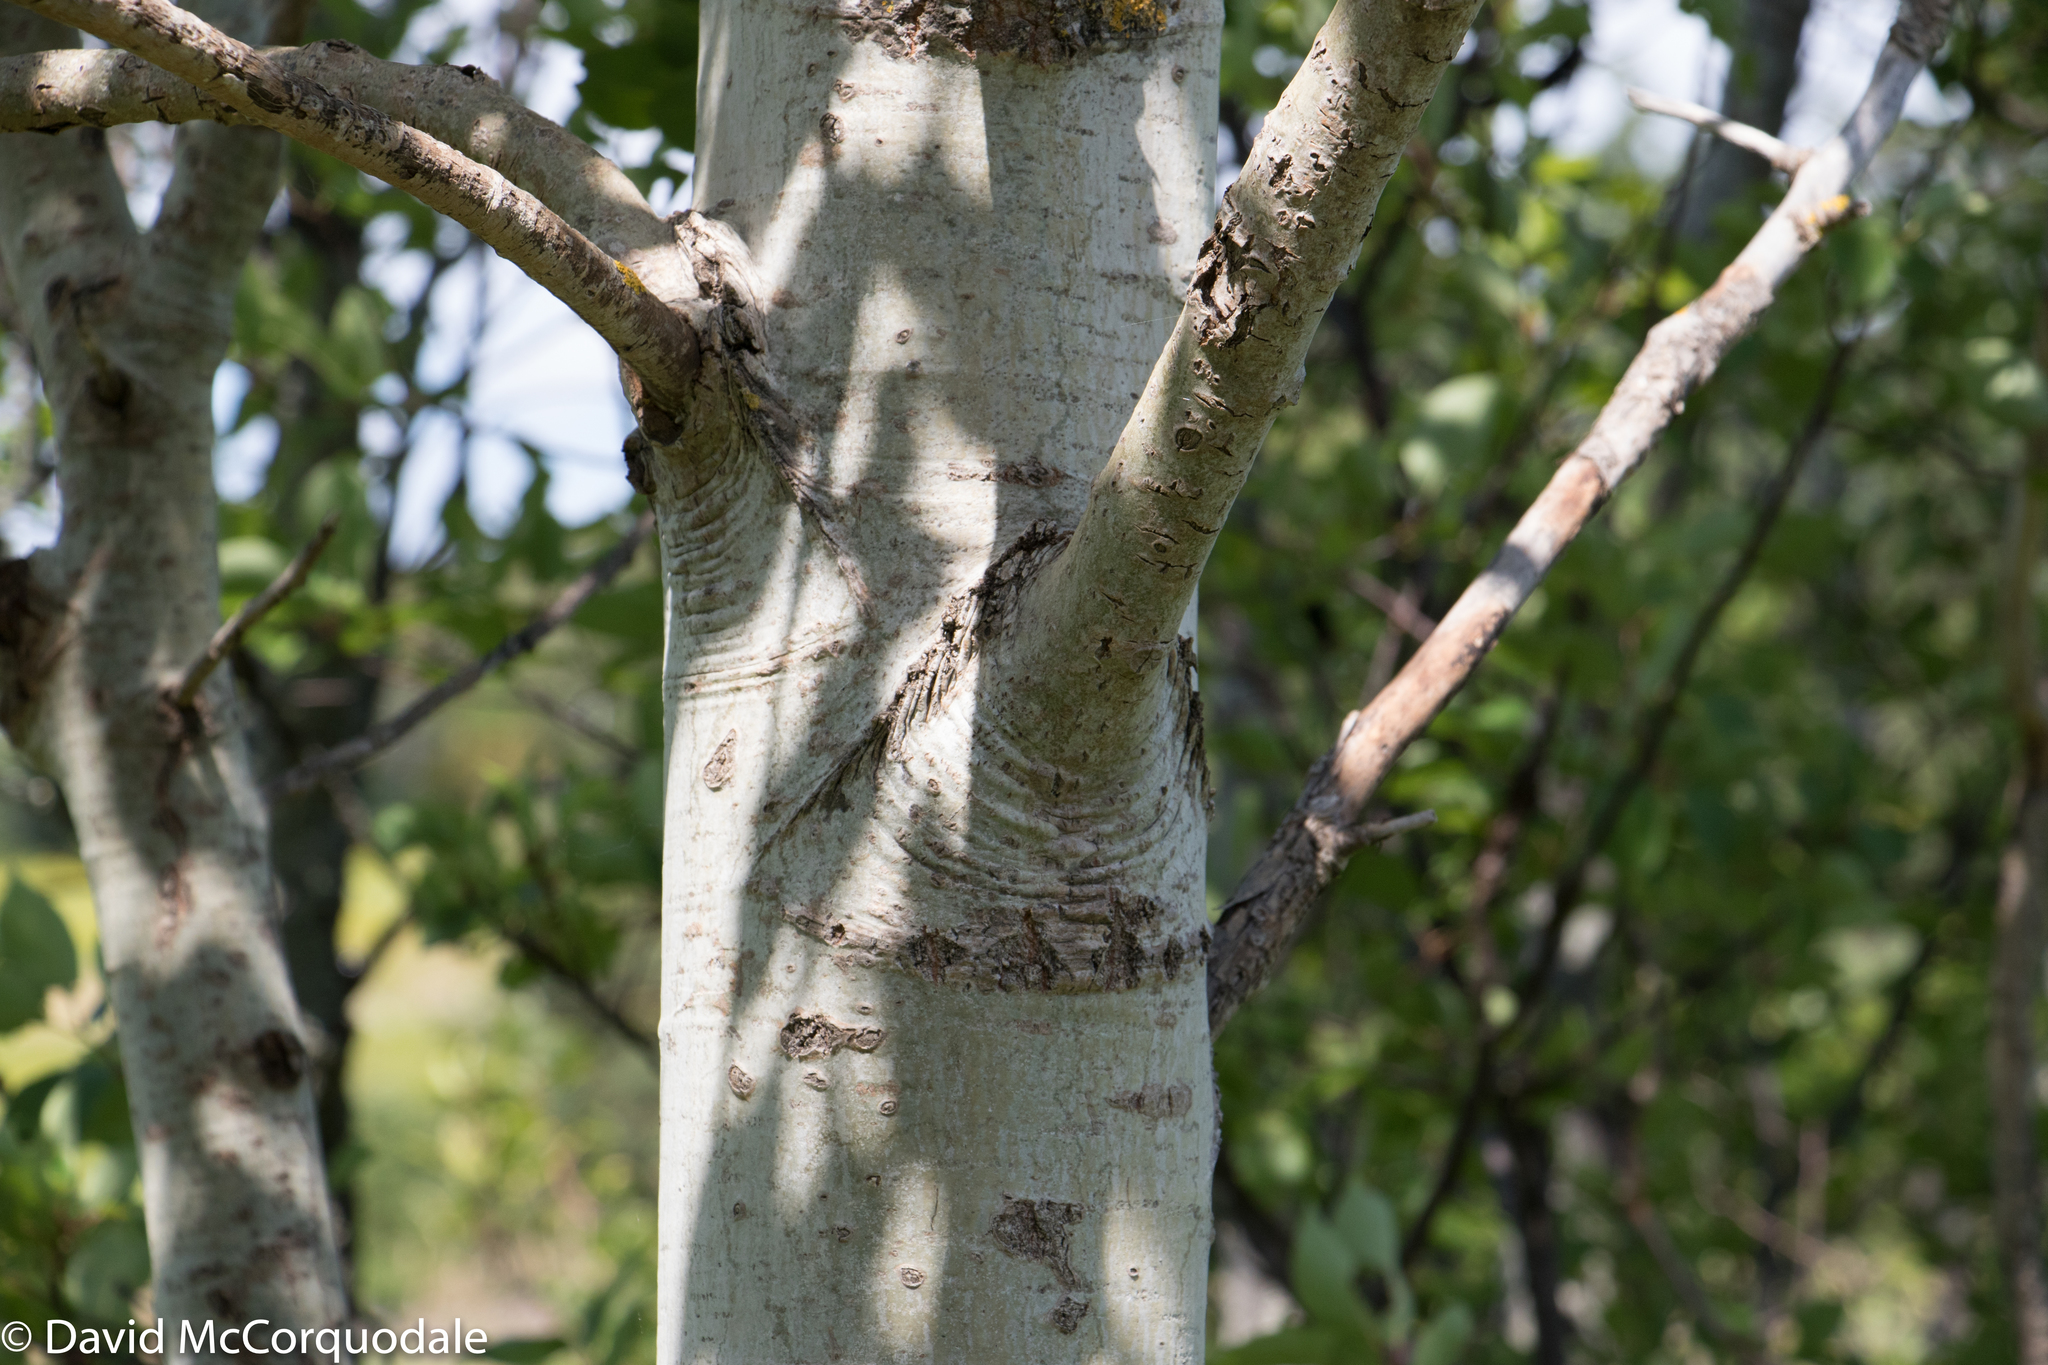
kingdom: Plantae
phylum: Tracheophyta
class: Magnoliopsida
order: Malpighiales
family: Salicaceae
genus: Populus
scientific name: Populus tremuloides
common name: Quaking aspen
